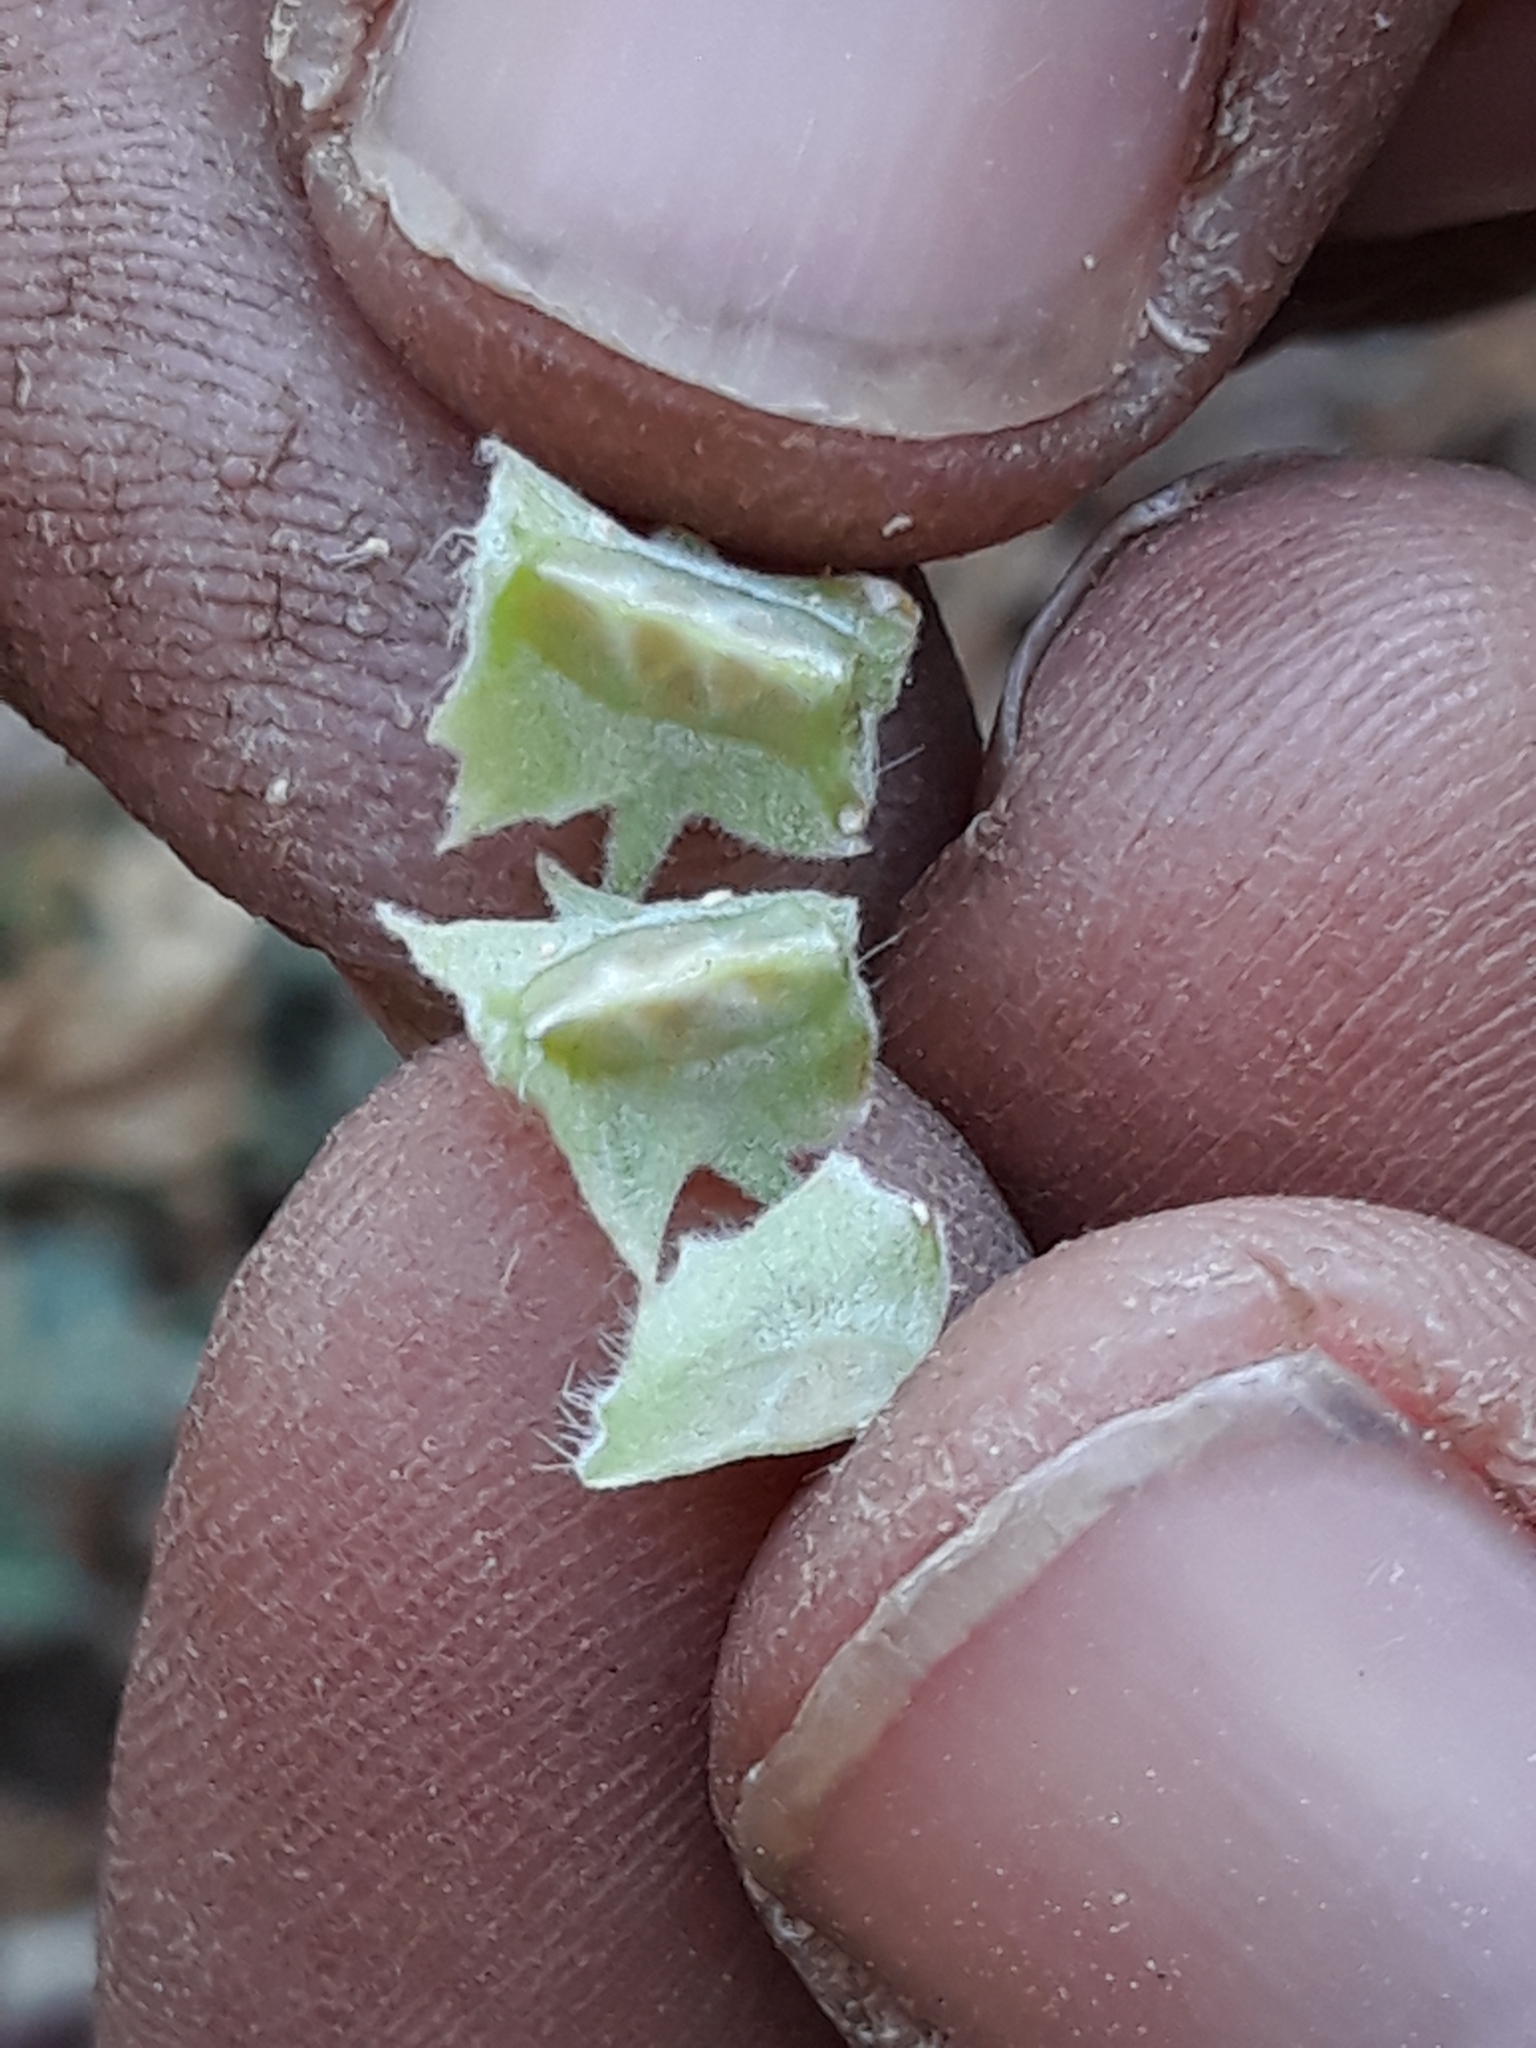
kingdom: Plantae
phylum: Tracheophyta
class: Magnoliopsida
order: Zygophyllales
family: Zygophyllaceae
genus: Tribulus
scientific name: Tribulus pentandrus
